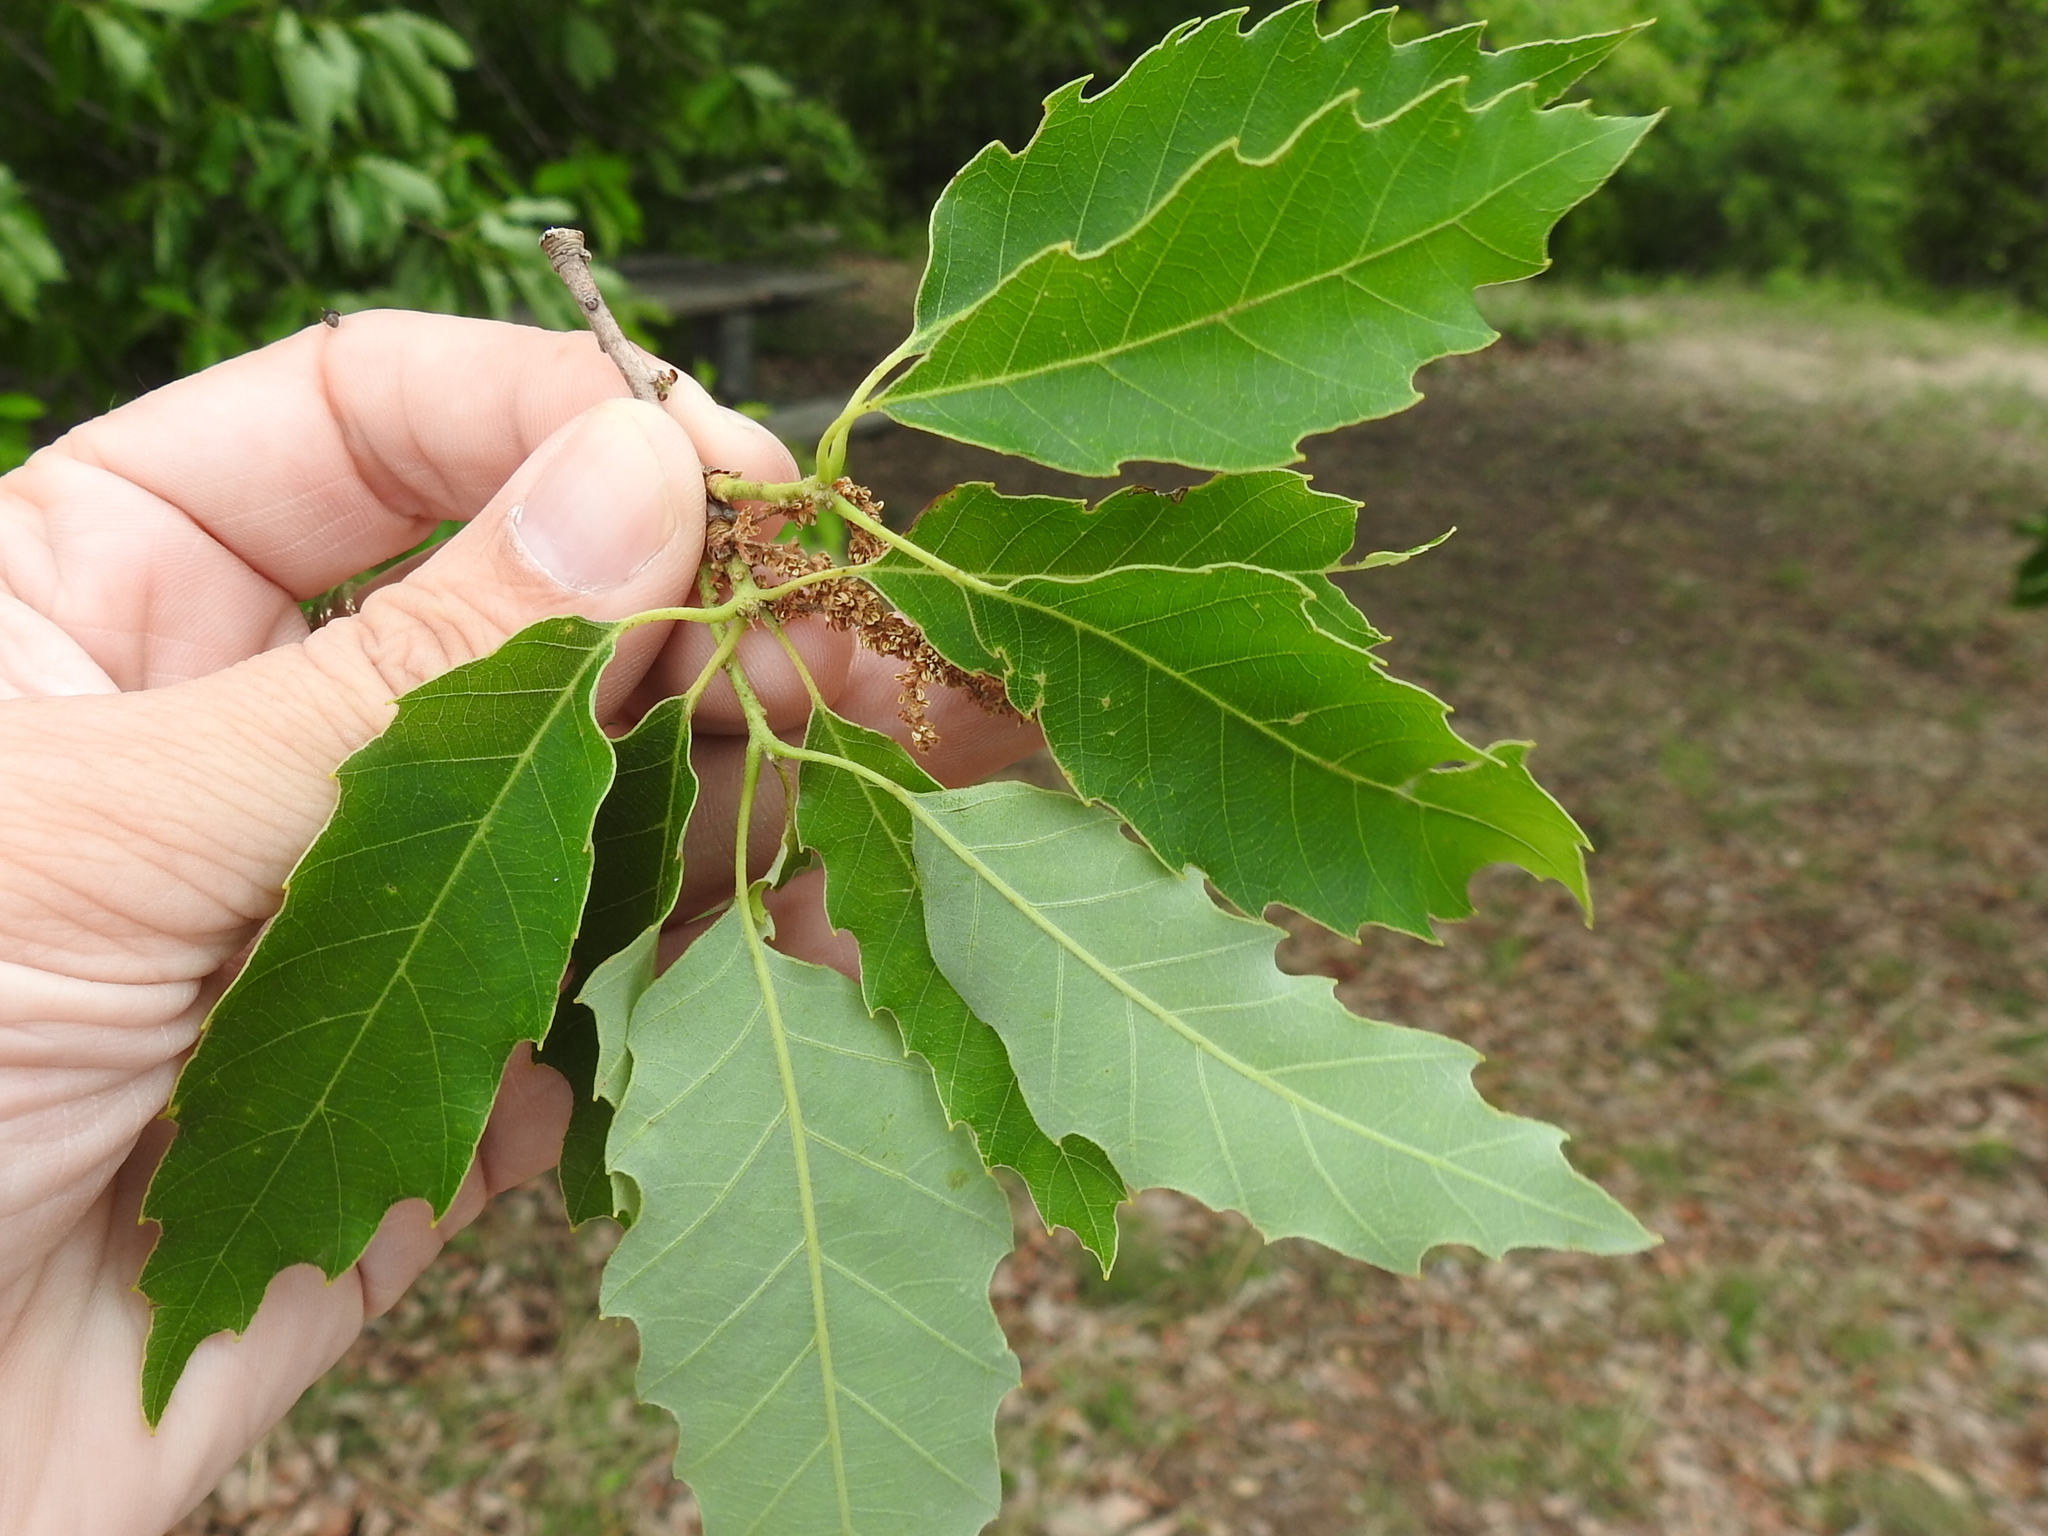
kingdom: Plantae
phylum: Tracheophyta
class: Magnoliopsida
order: Fagales
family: Fagaceae
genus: Quercus
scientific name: Quercus muehlenbergii
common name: Chinkapin oak
